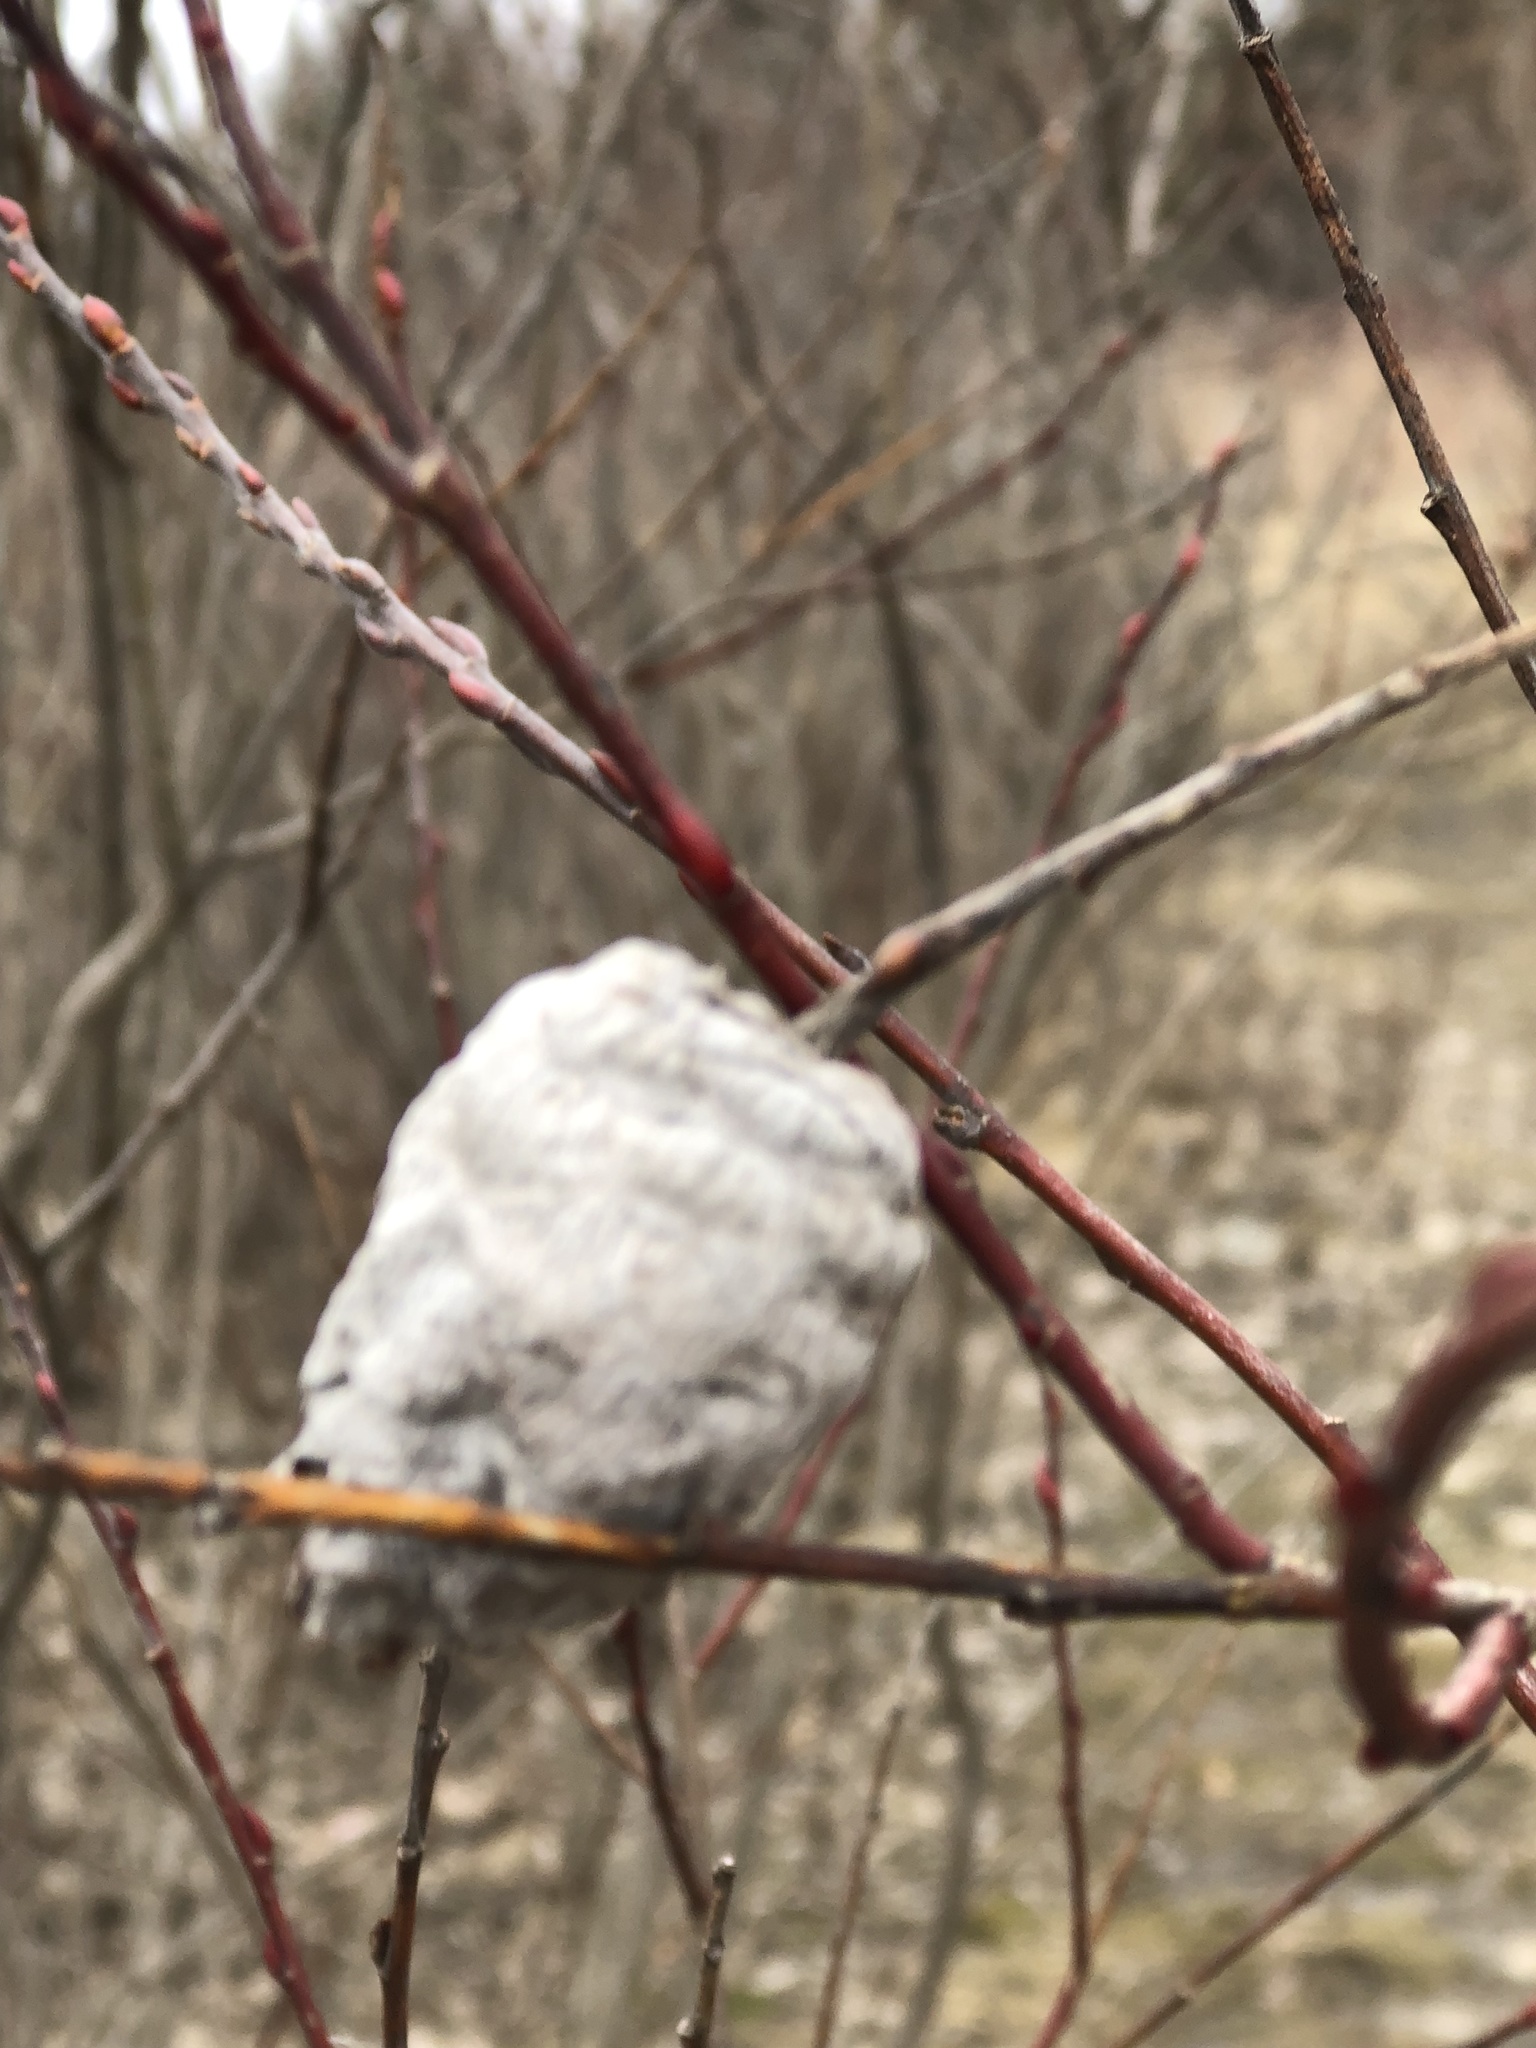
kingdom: Animalia
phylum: Arthropoda
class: Insecta
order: Diptera
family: Cecidomyiidae
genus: Rabdophaga
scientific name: Rabdophaga strobiloides
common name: Willow pinecone gall midge
